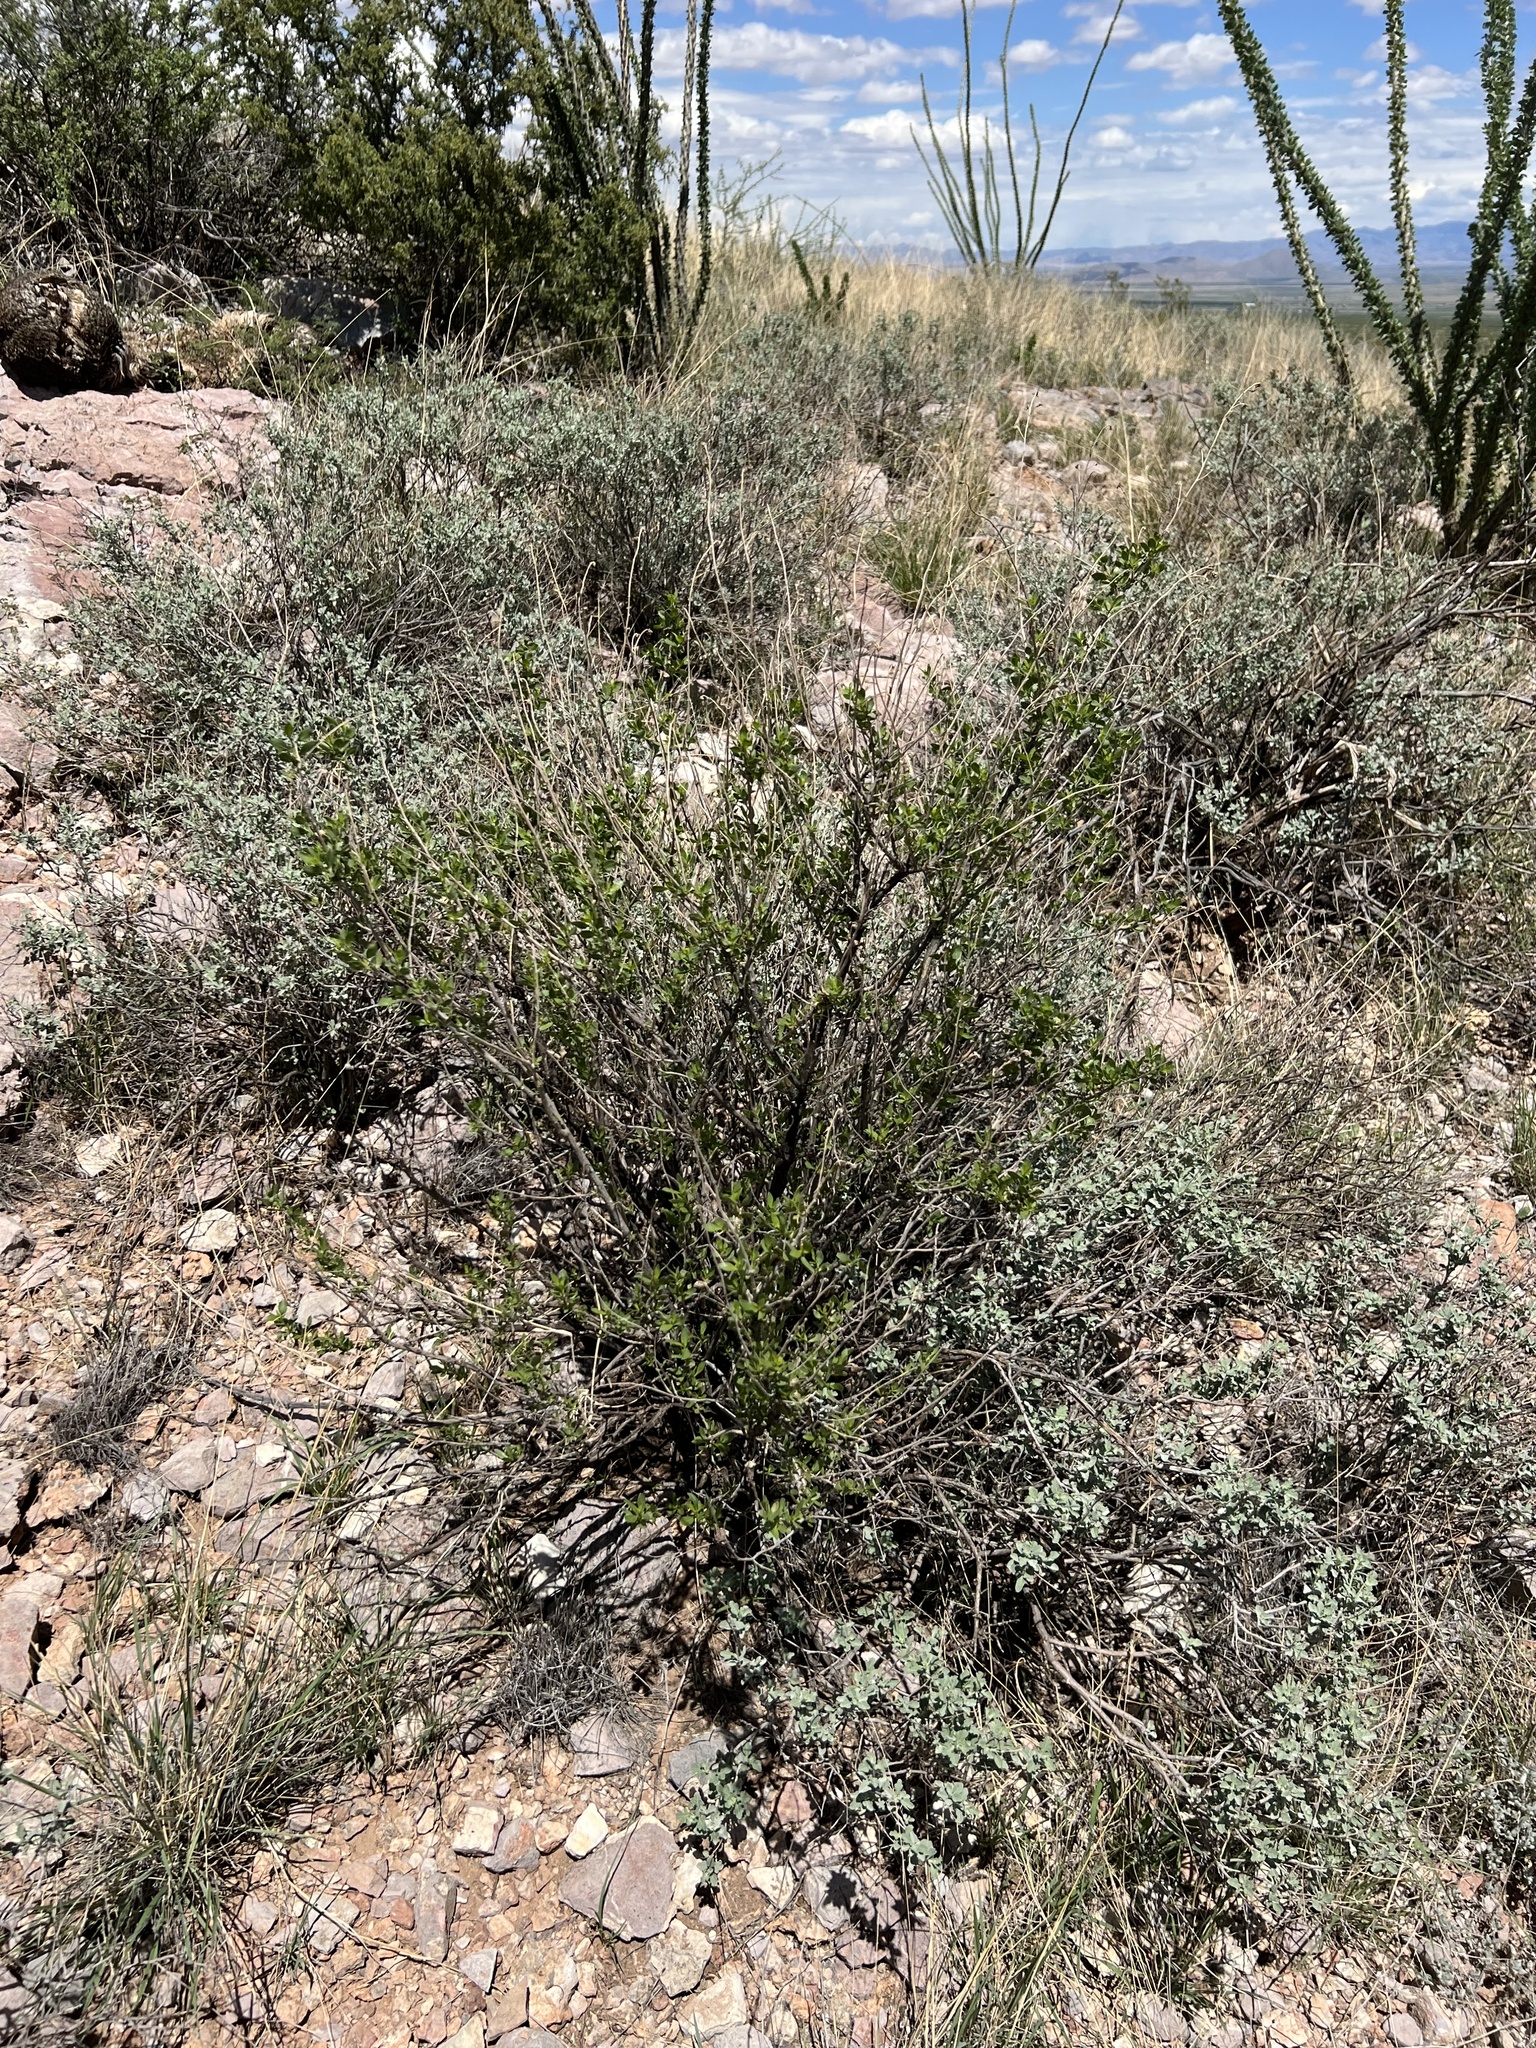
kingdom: Plantae
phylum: Tracheophyta
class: Magnoliopsida
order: Asterales
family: Asteraceae
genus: Flourensia
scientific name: Flourensia cernua
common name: Varnishbush
